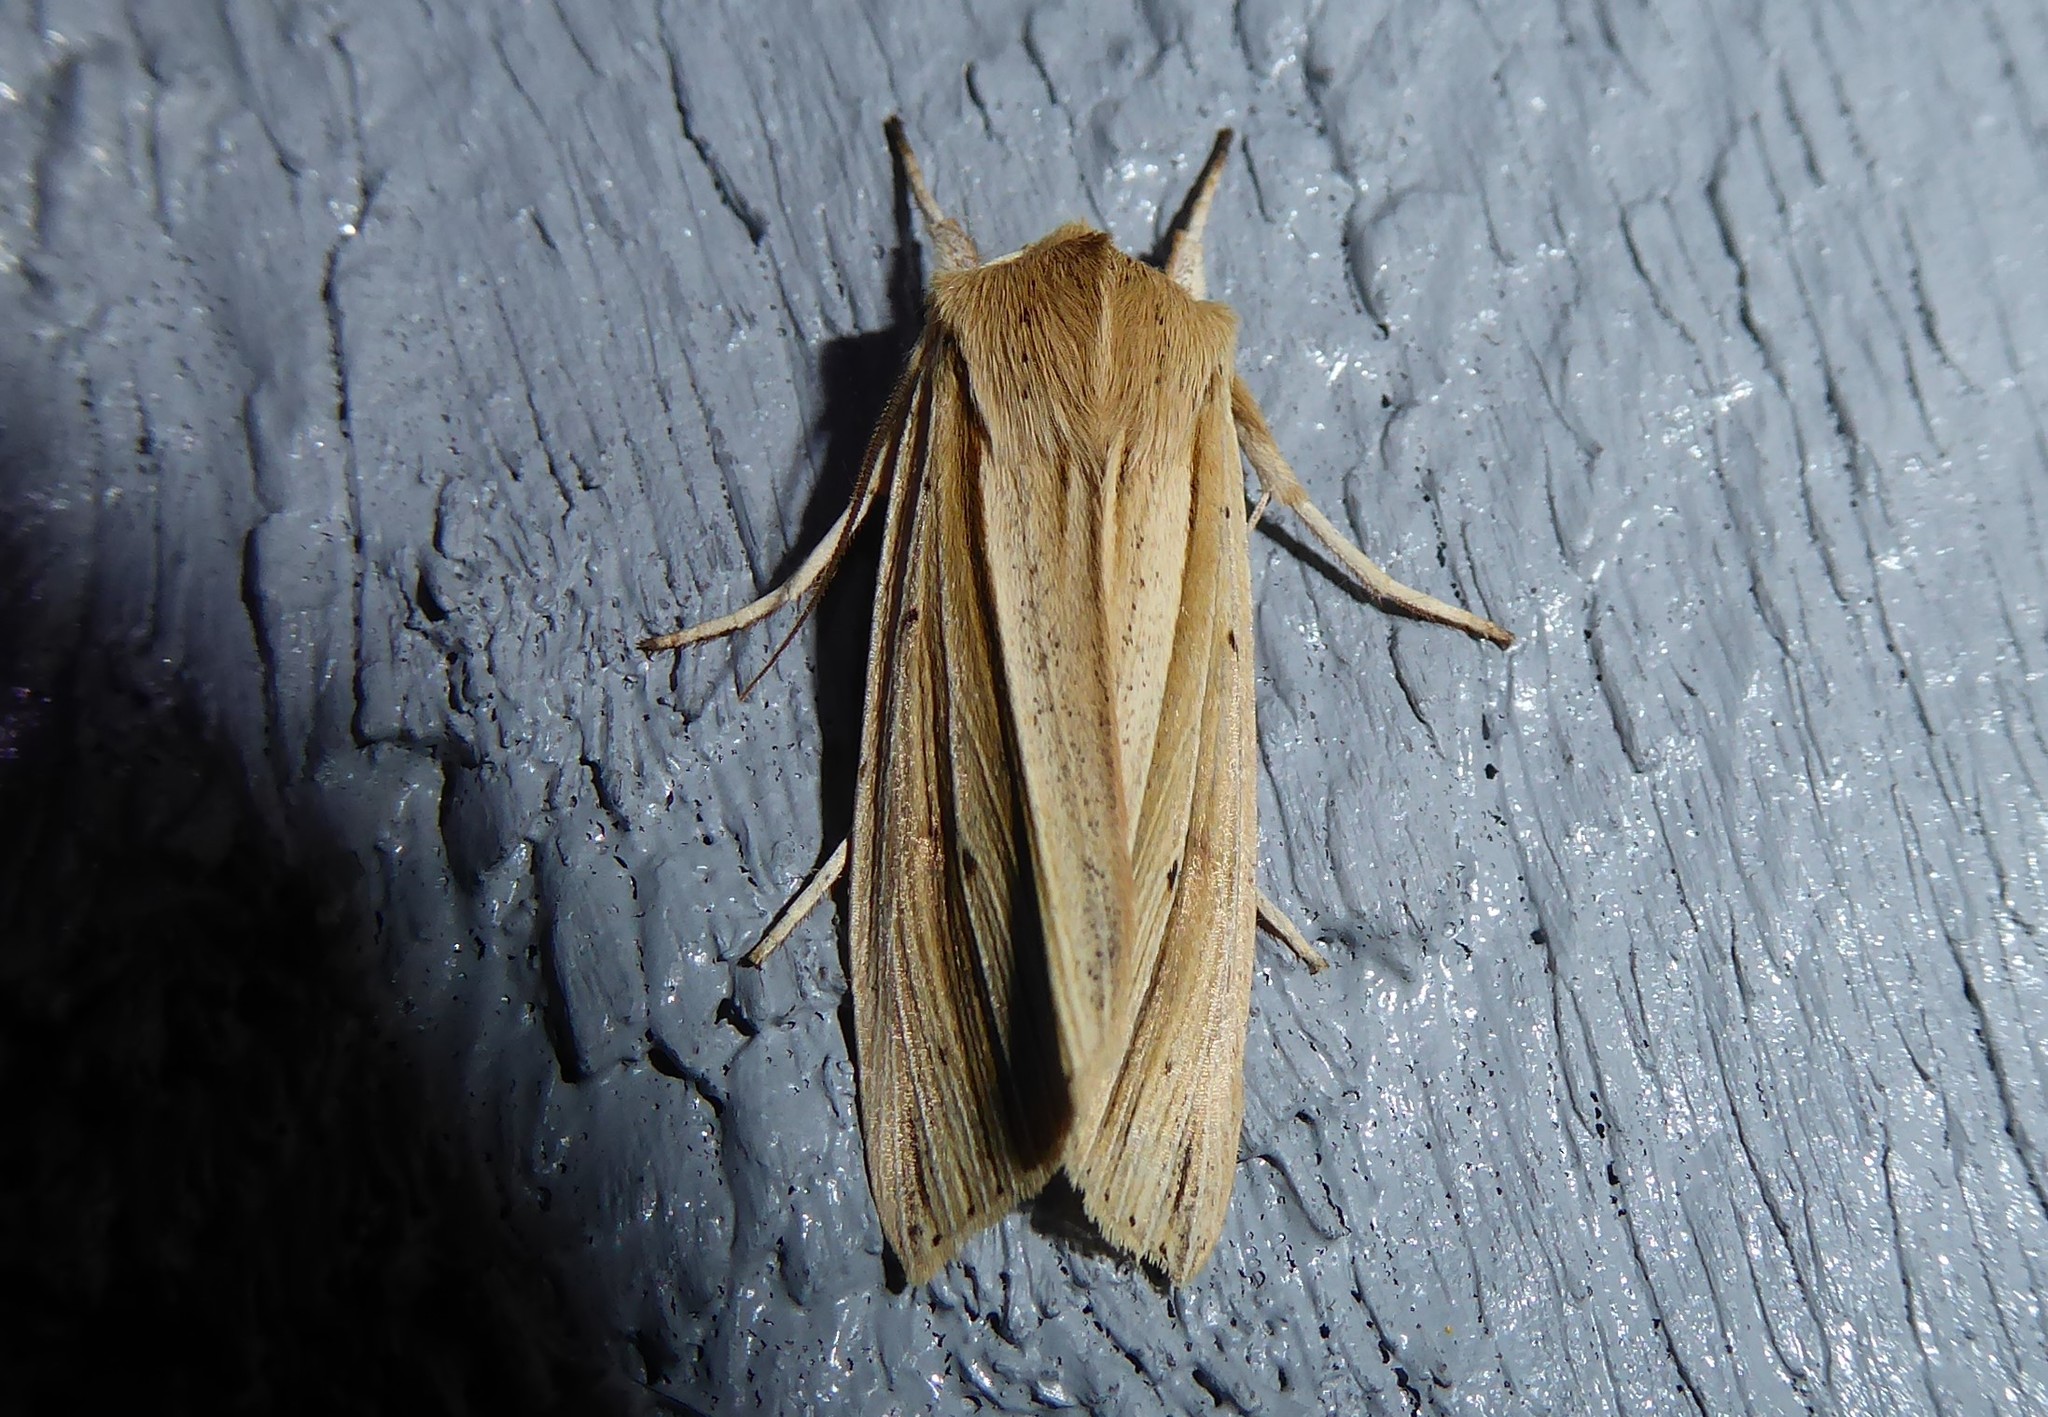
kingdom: Animalia
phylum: Arthropoda
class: Insecta
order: Lepidoptera
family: Noctuidae
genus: Ichneutica
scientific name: Ichneutica sulcana
